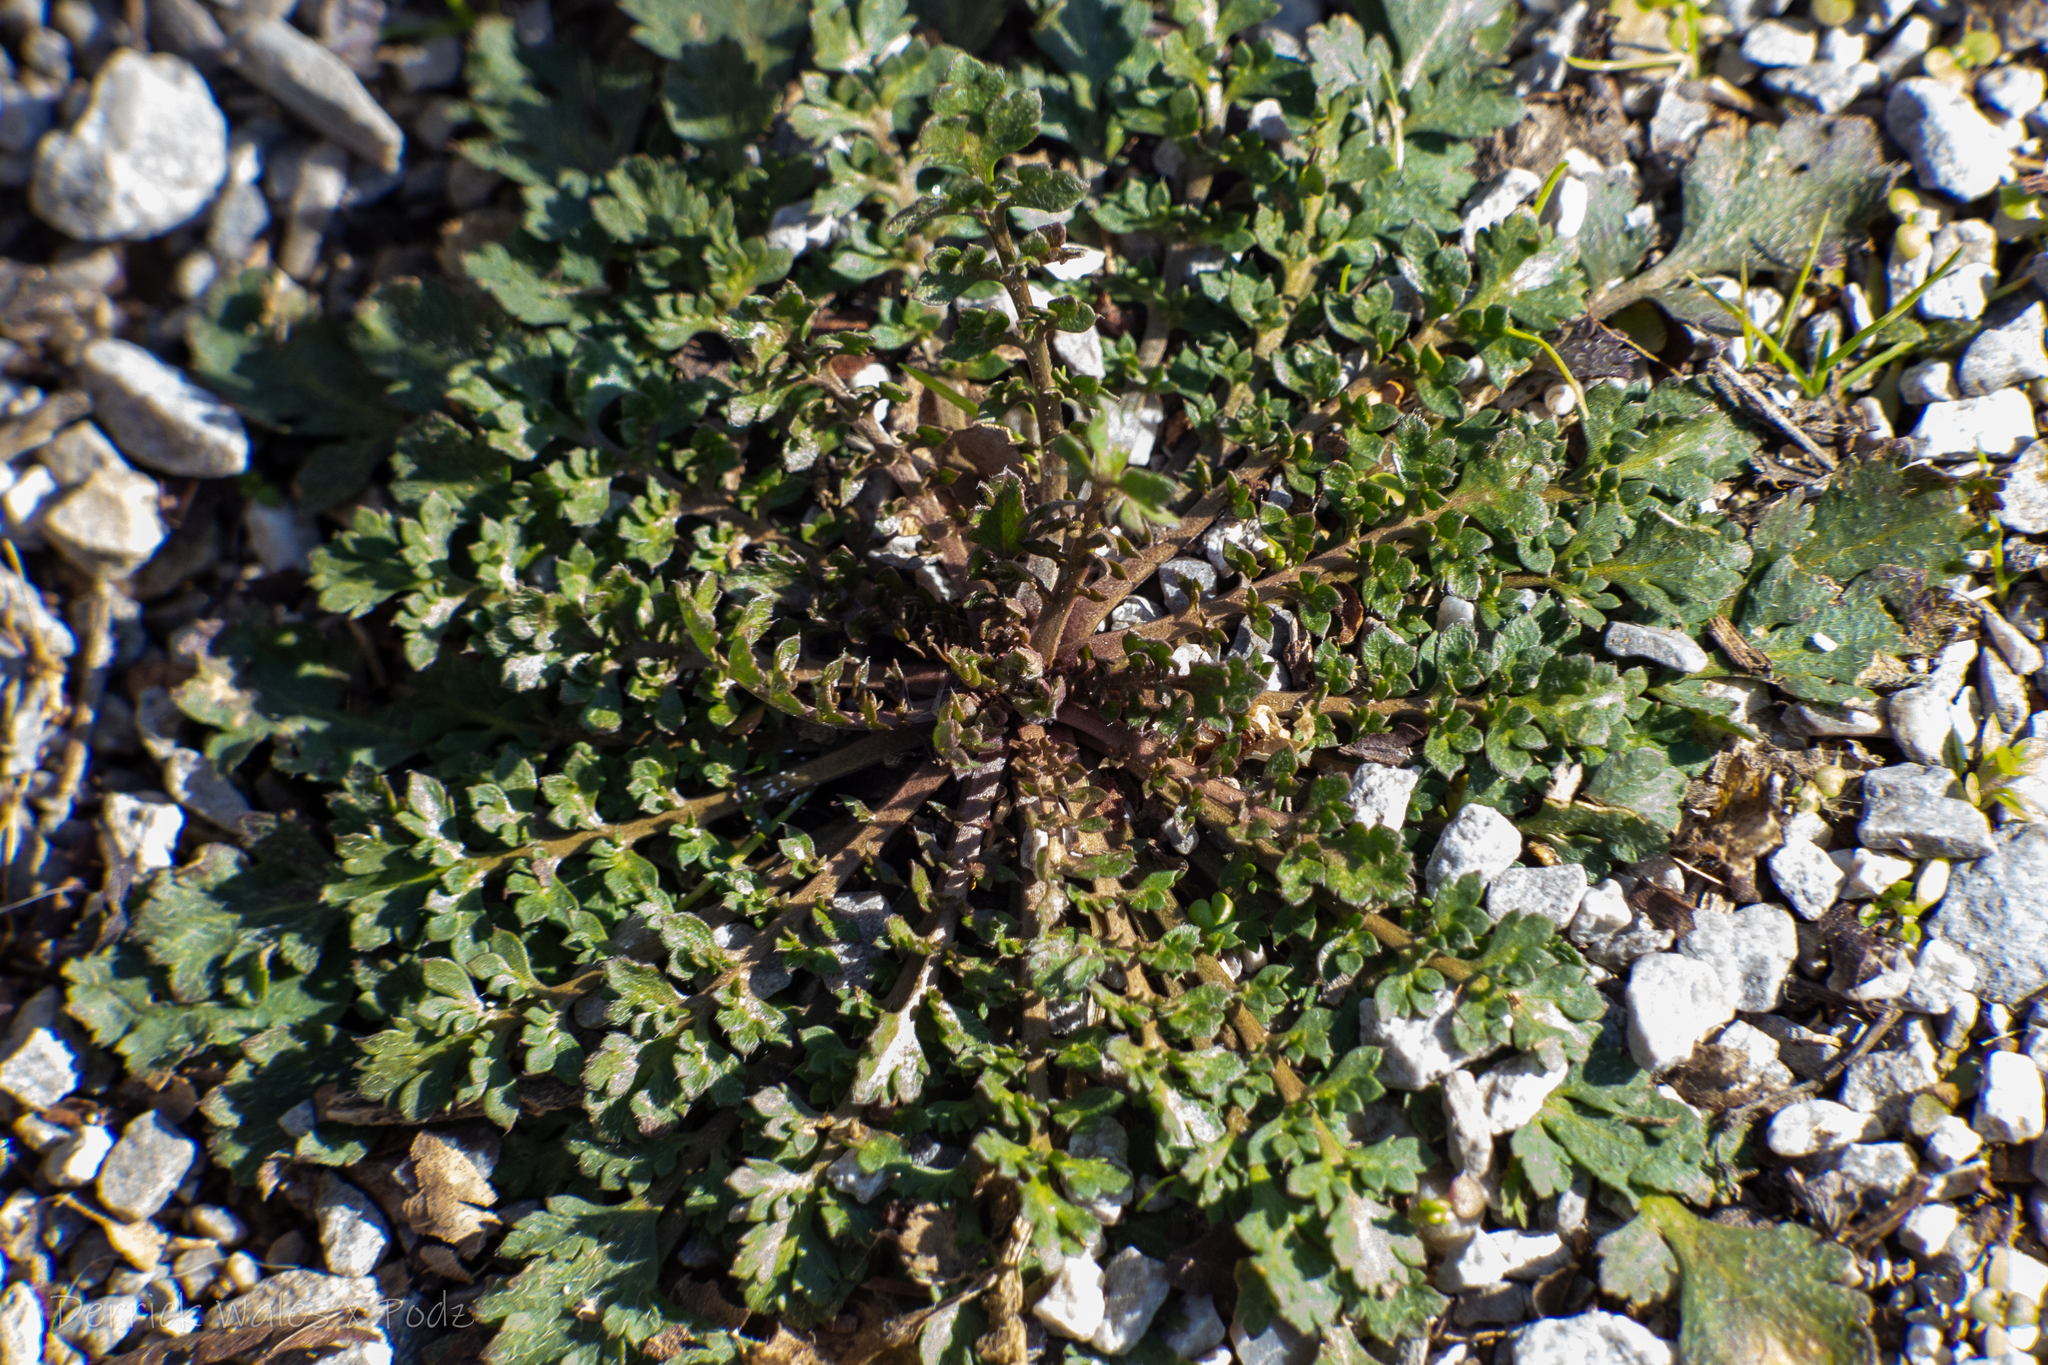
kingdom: Plantae
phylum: Tracheophyta
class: Magnoliopsida
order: Brassicales
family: Brassicaceae
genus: Lepidium
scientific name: Lepidium didymum
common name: Lesser swinecress
